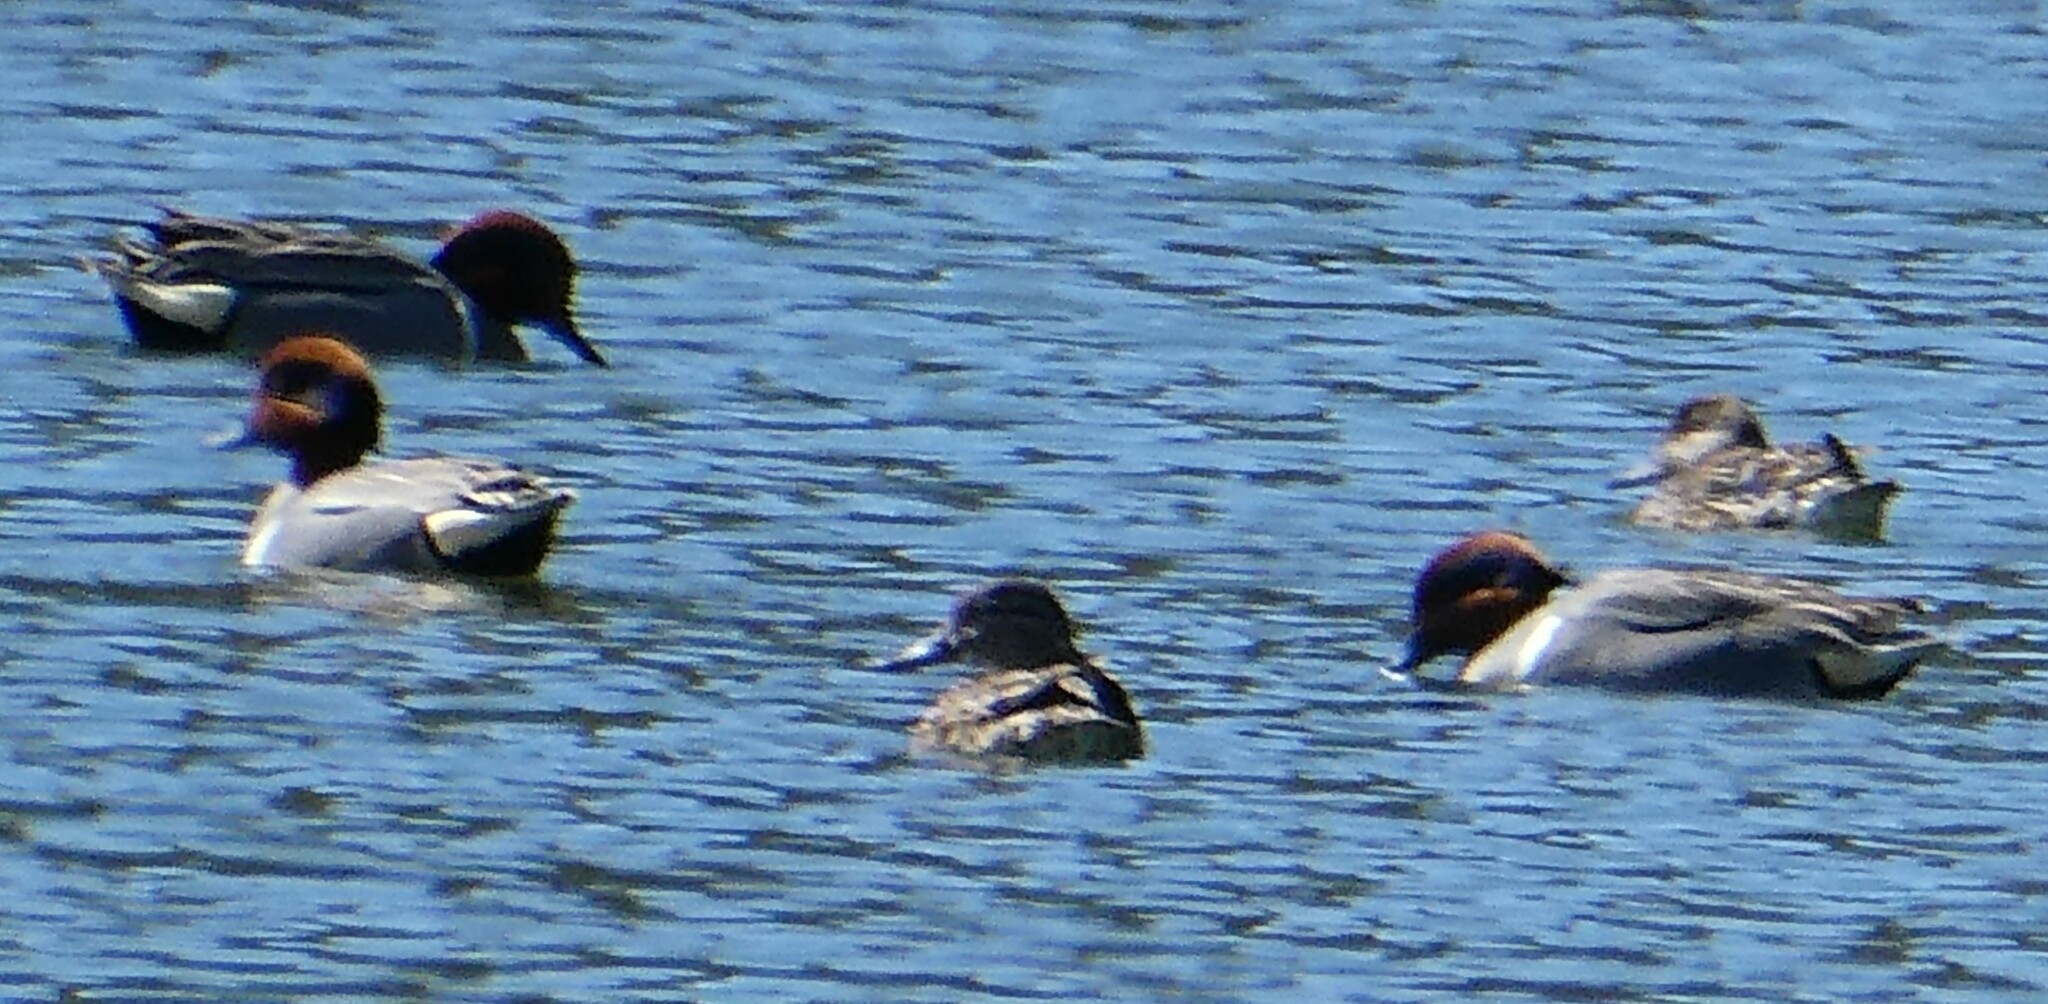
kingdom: Animalia
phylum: Chordata
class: Aves
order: Anseriformes
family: Anatidae
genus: Anas
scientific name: Anas crecca
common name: Eurasian teal
